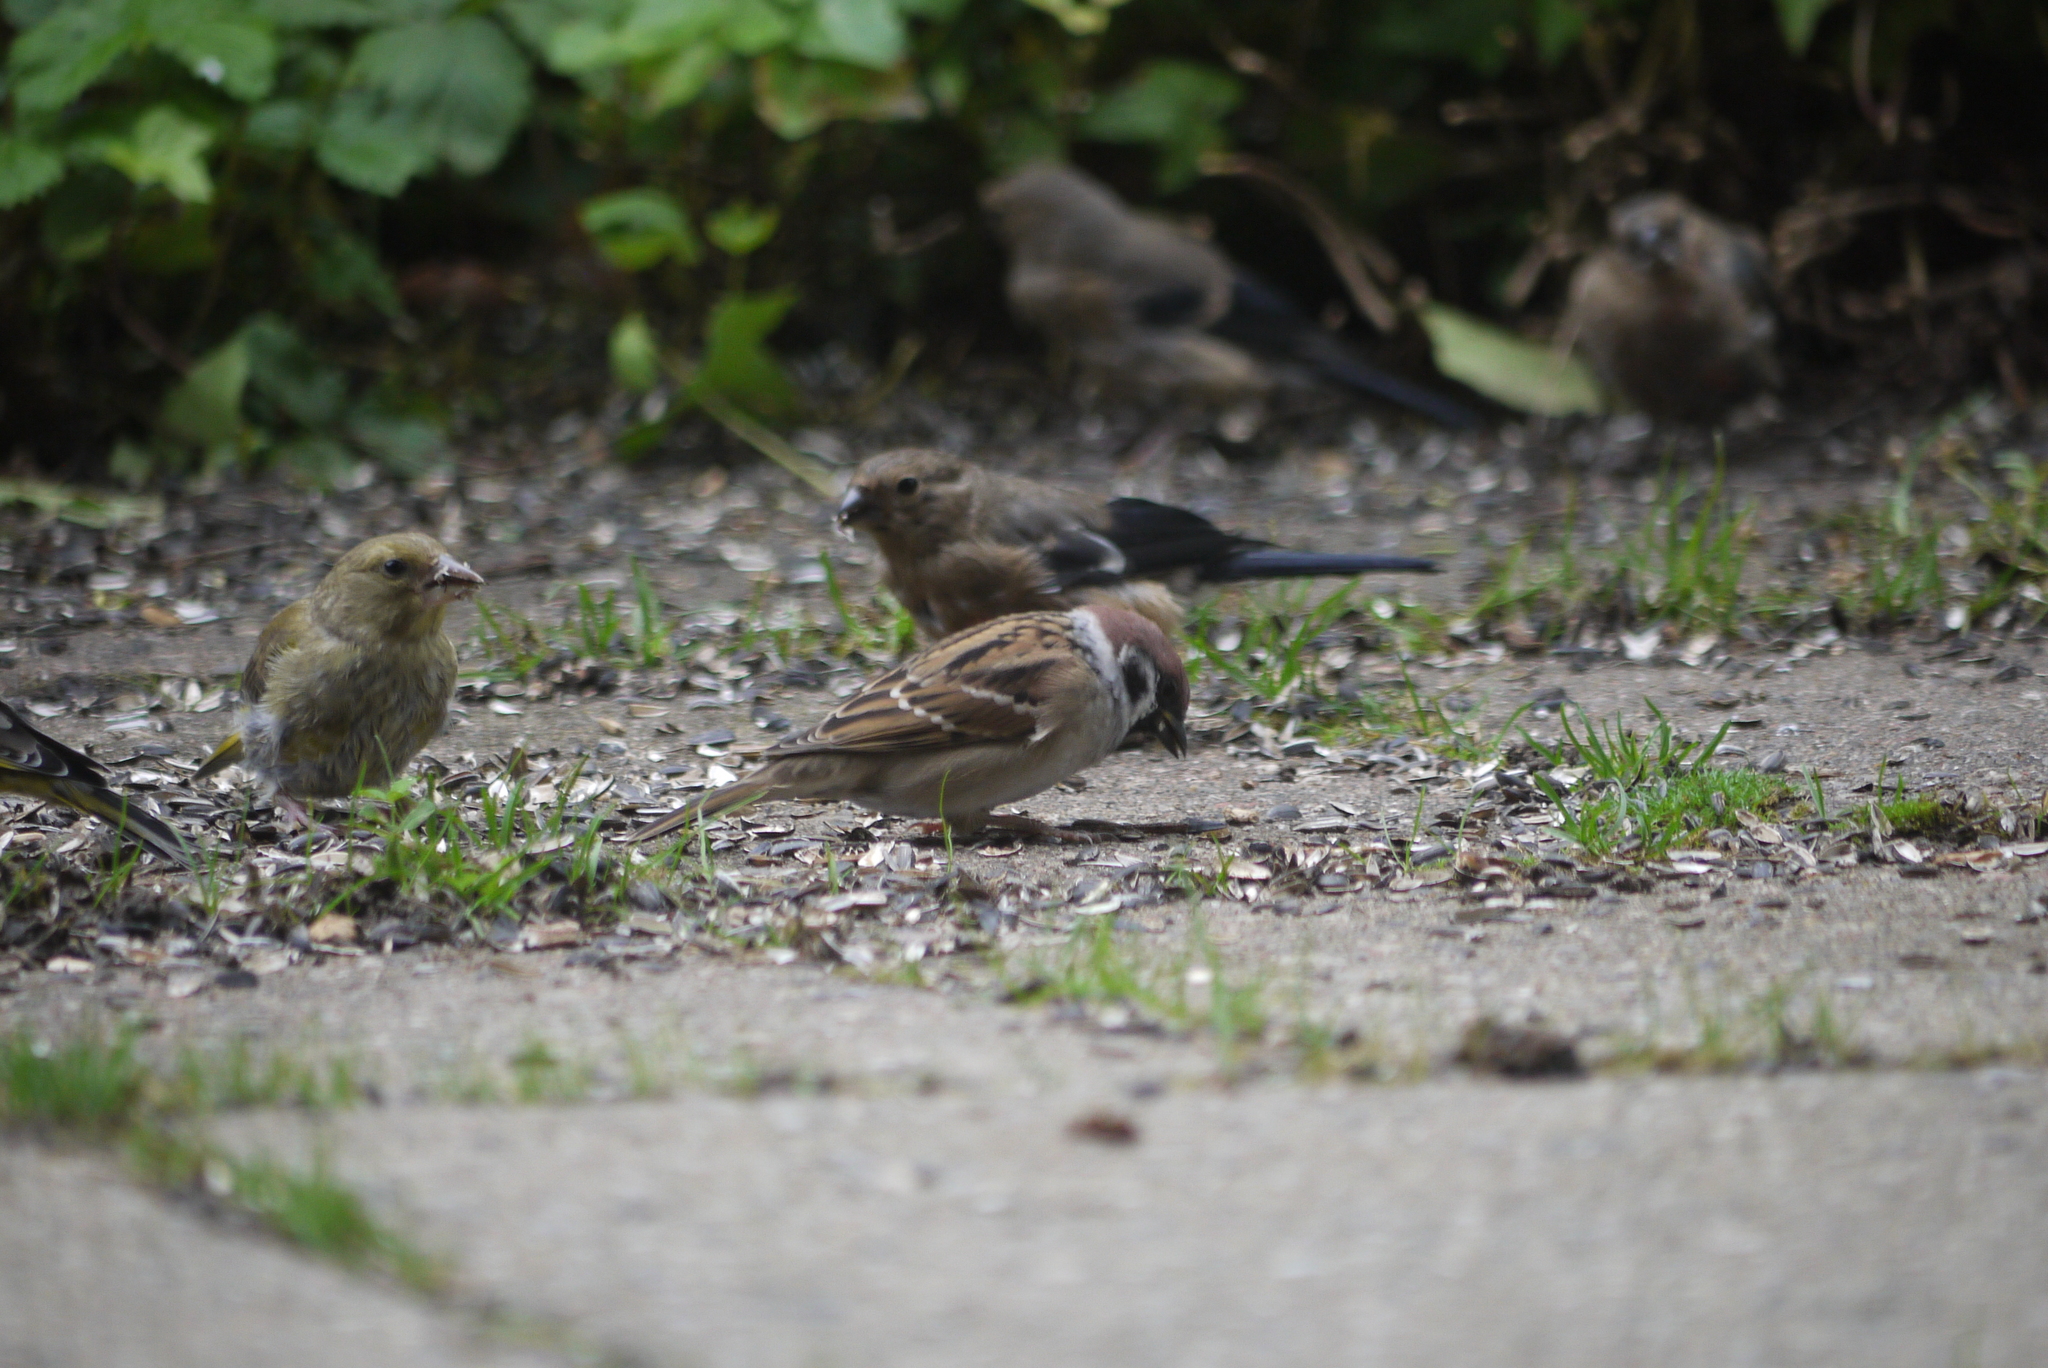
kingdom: Animalia
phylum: Chordata
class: Aves
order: Passeriformes
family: Passeridae
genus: Passer
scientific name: Passer montanus
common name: Eurasian tree sparrow
